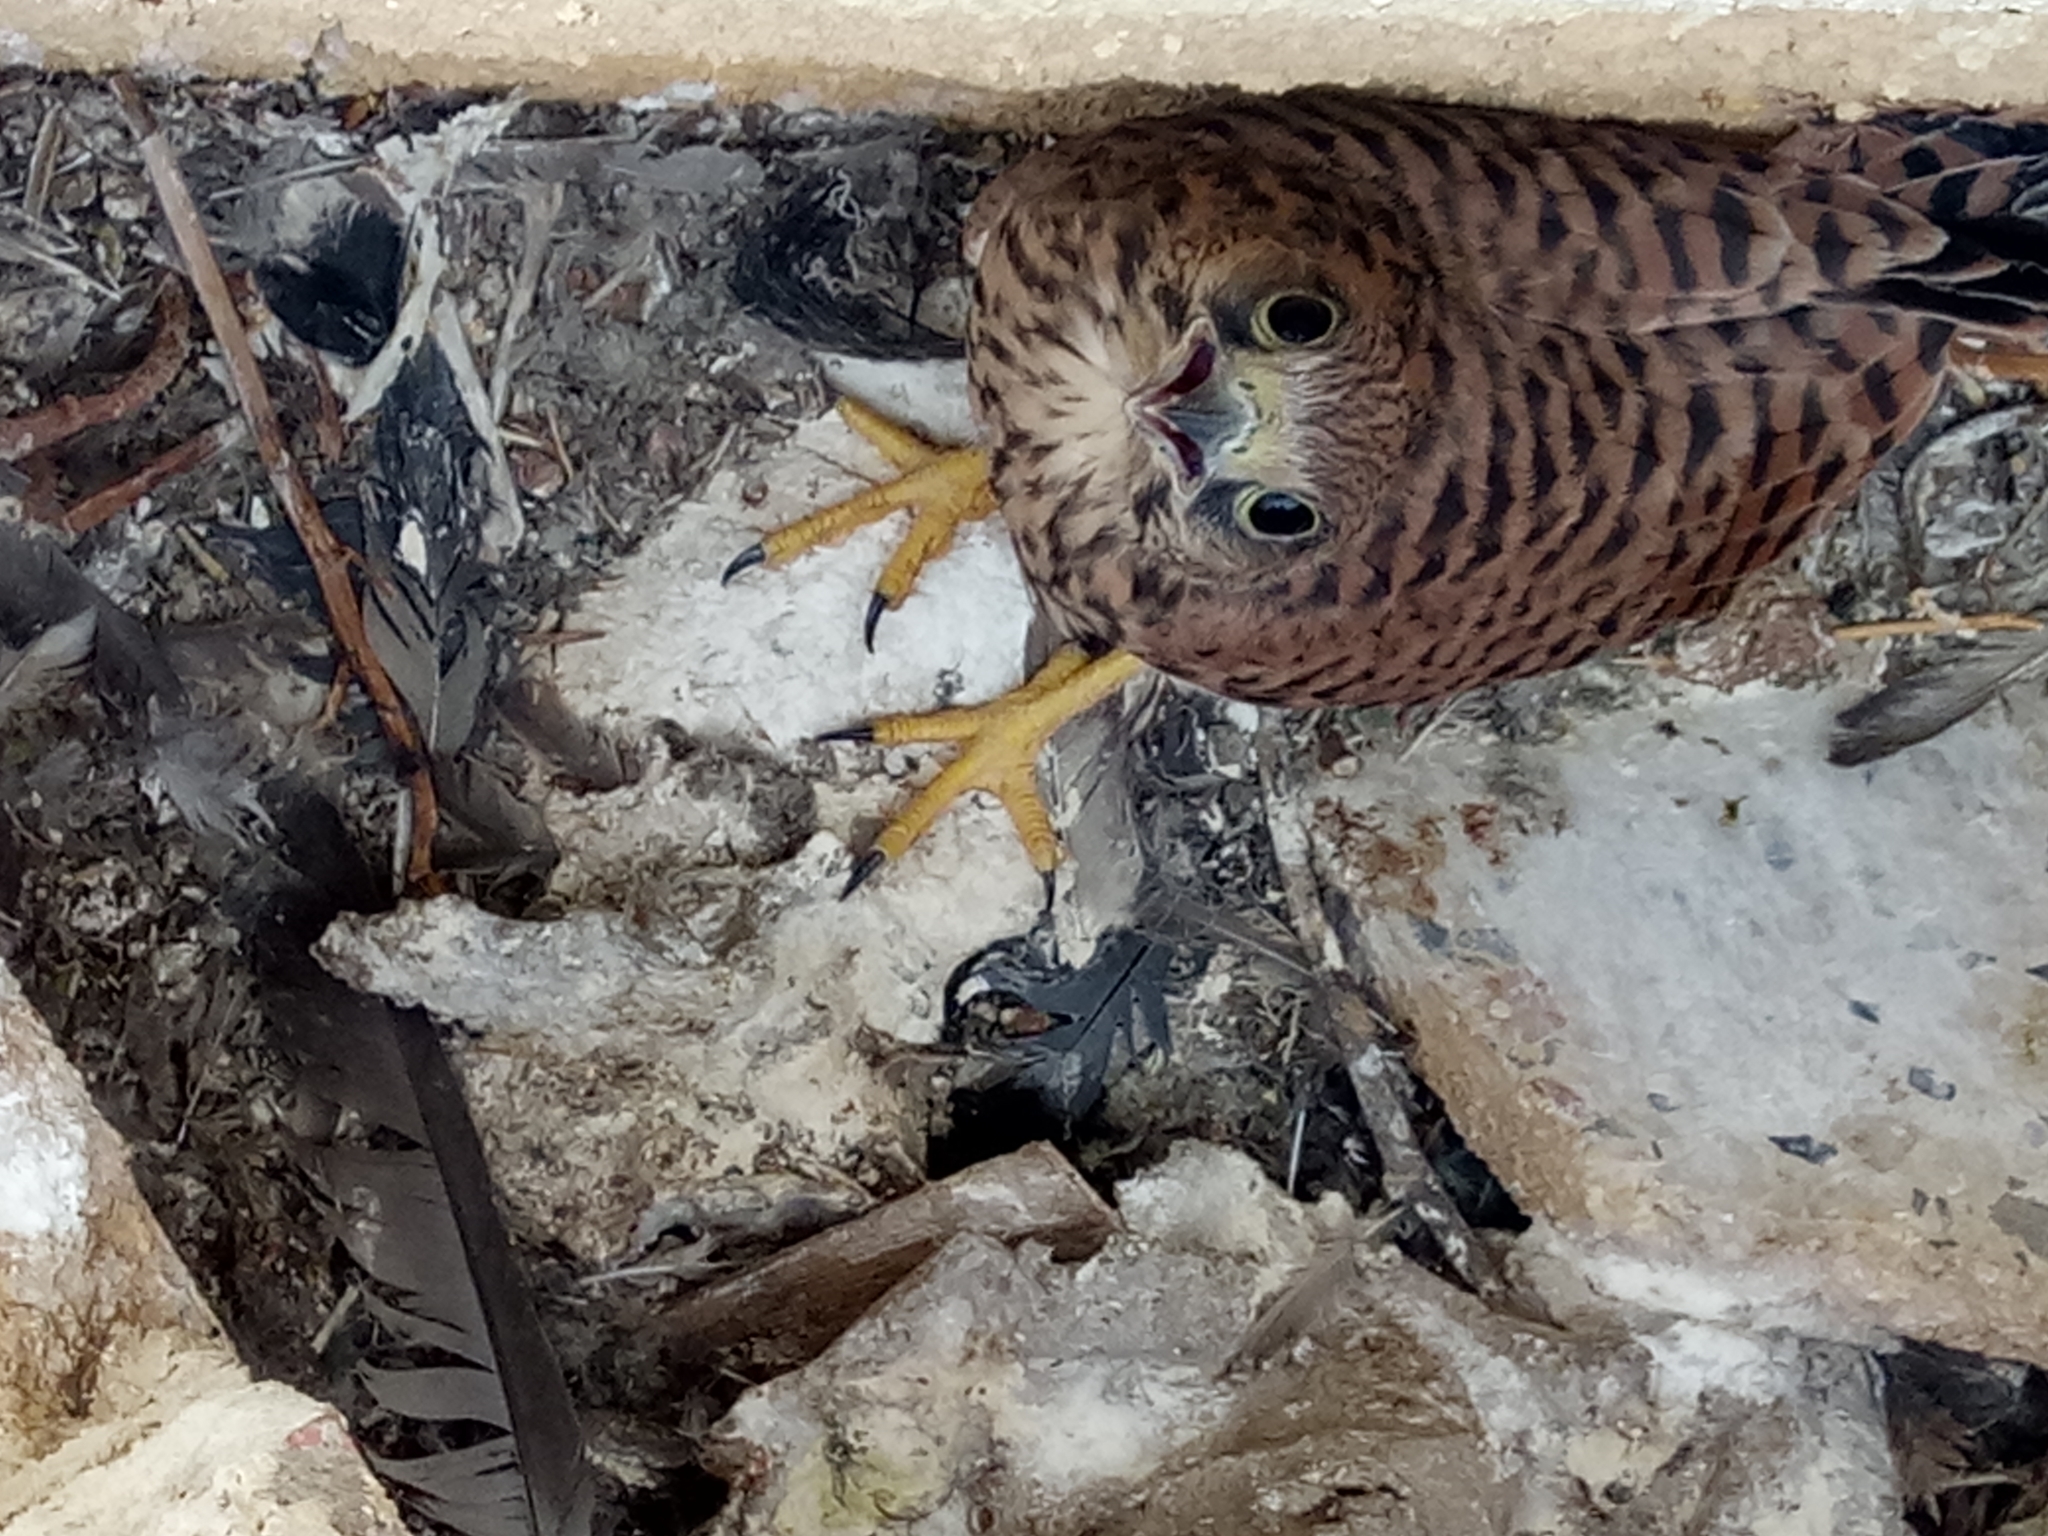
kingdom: Animalia
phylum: Chordata
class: Aves
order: Falconiformes
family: Falconidae
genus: Falco
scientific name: Falco tinnunculus
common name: Common kestrel
